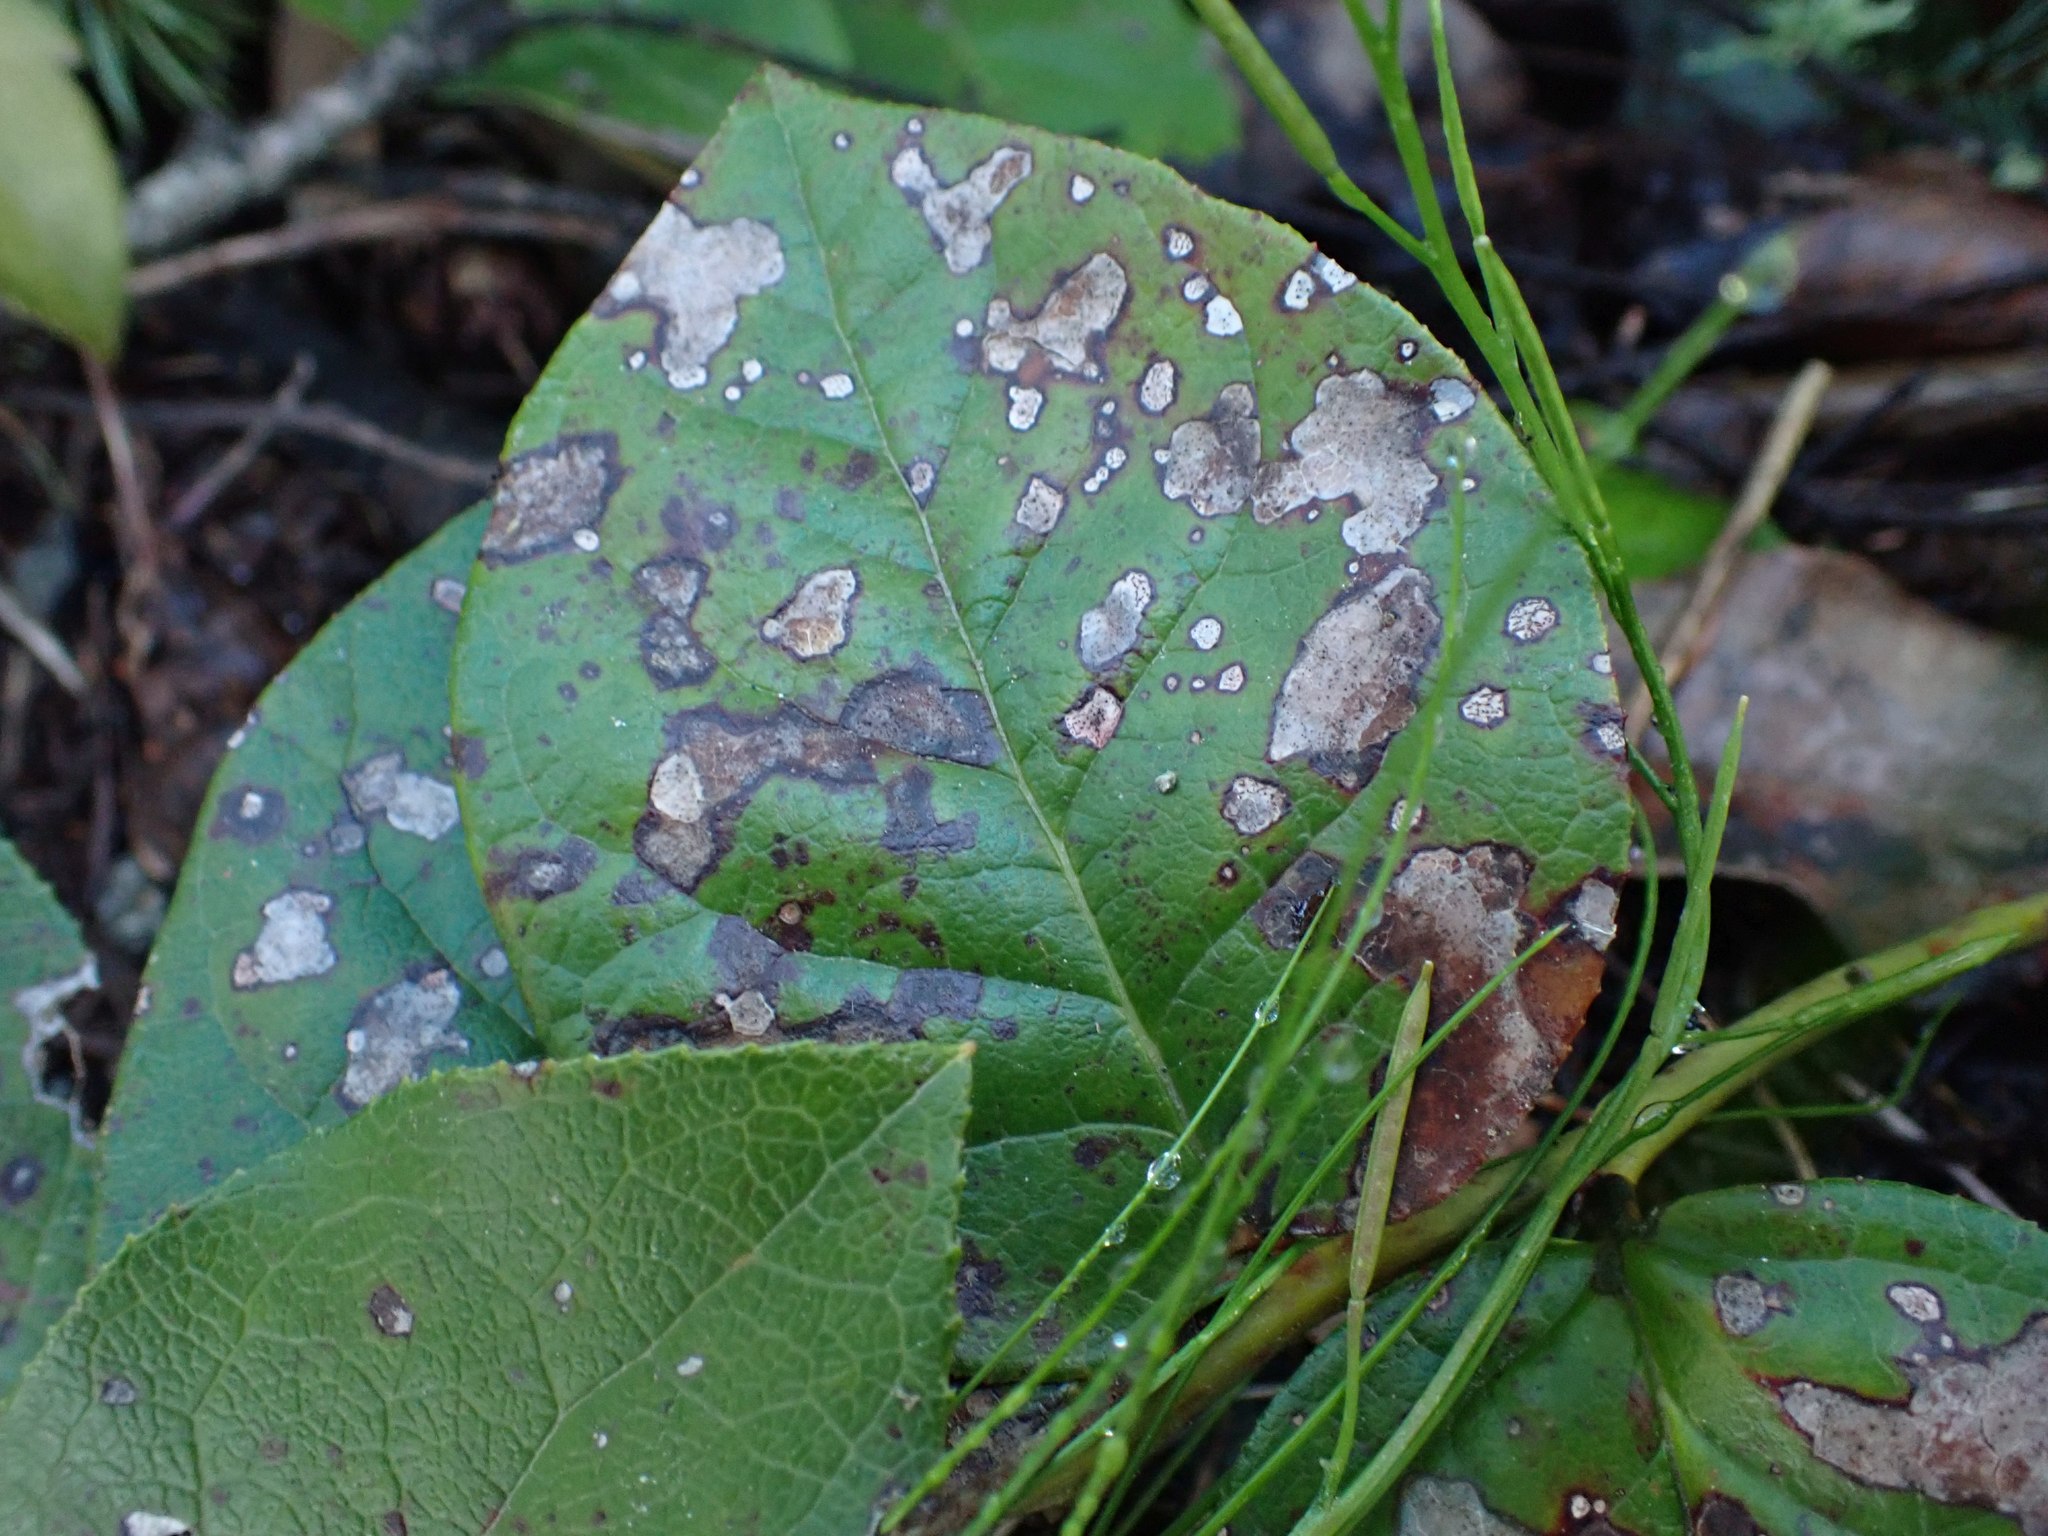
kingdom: Plantae
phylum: Tracheophyta
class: Magnoliopsida
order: Ericales
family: Ericaceae
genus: Gaultheria
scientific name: Gaultheria shallon
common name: Shallon
